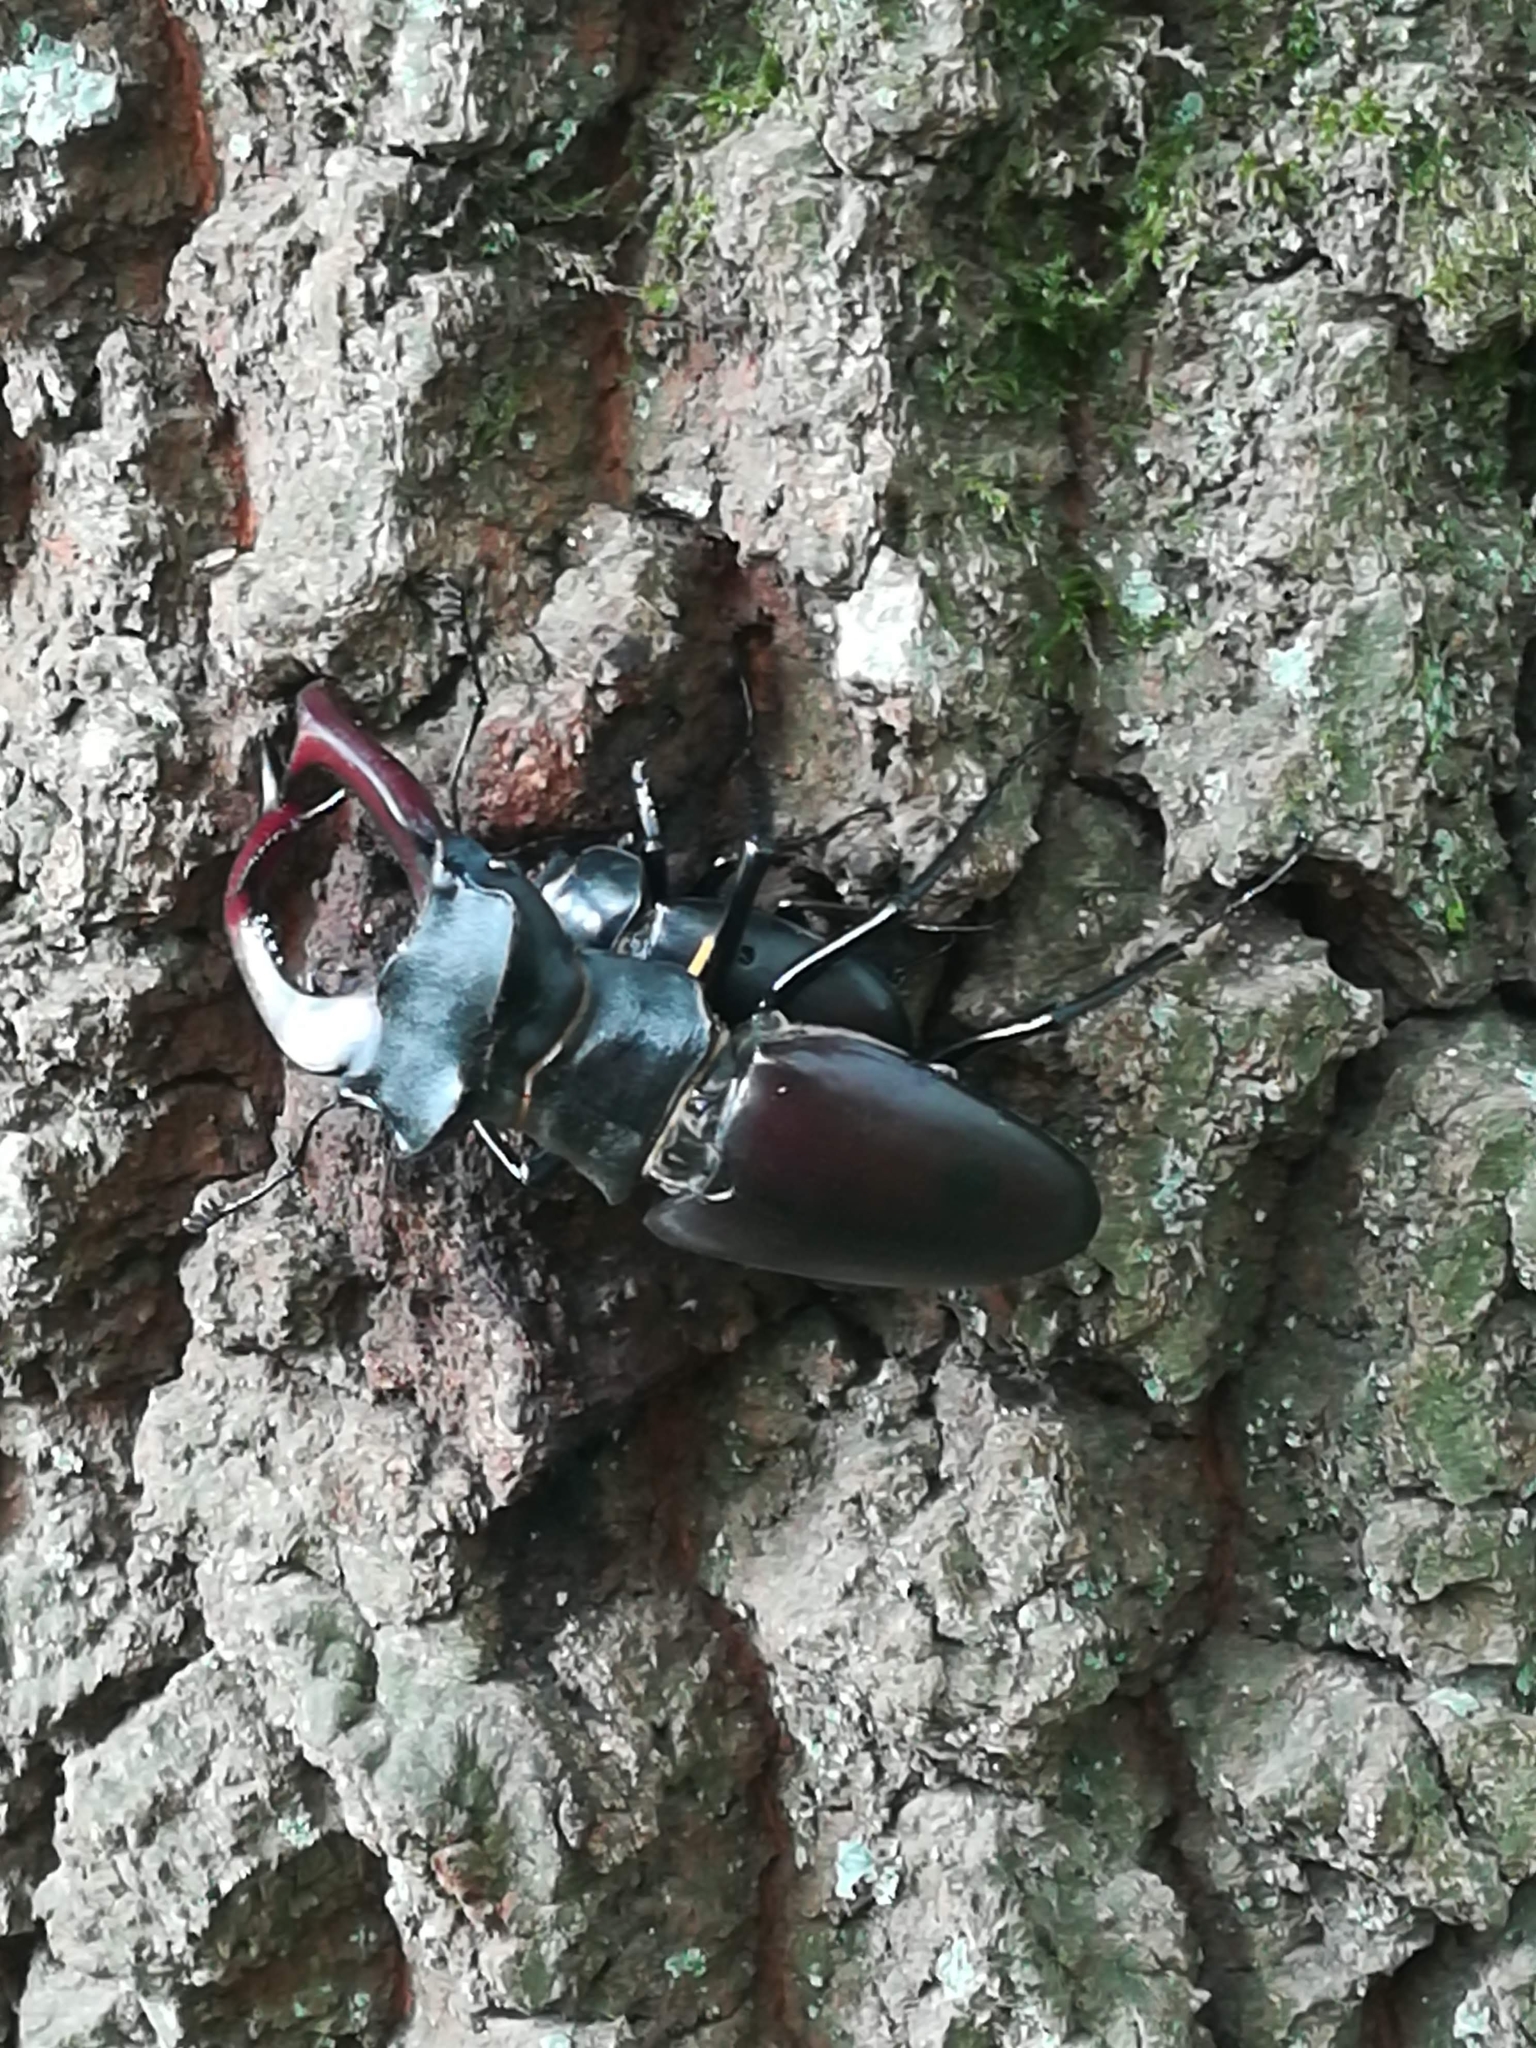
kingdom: Animalia
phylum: Arthropoda
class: Insecta
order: Coleoptera
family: Lucanidae
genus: Lucanus
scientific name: Lucanus cervus
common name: Stag beetle
